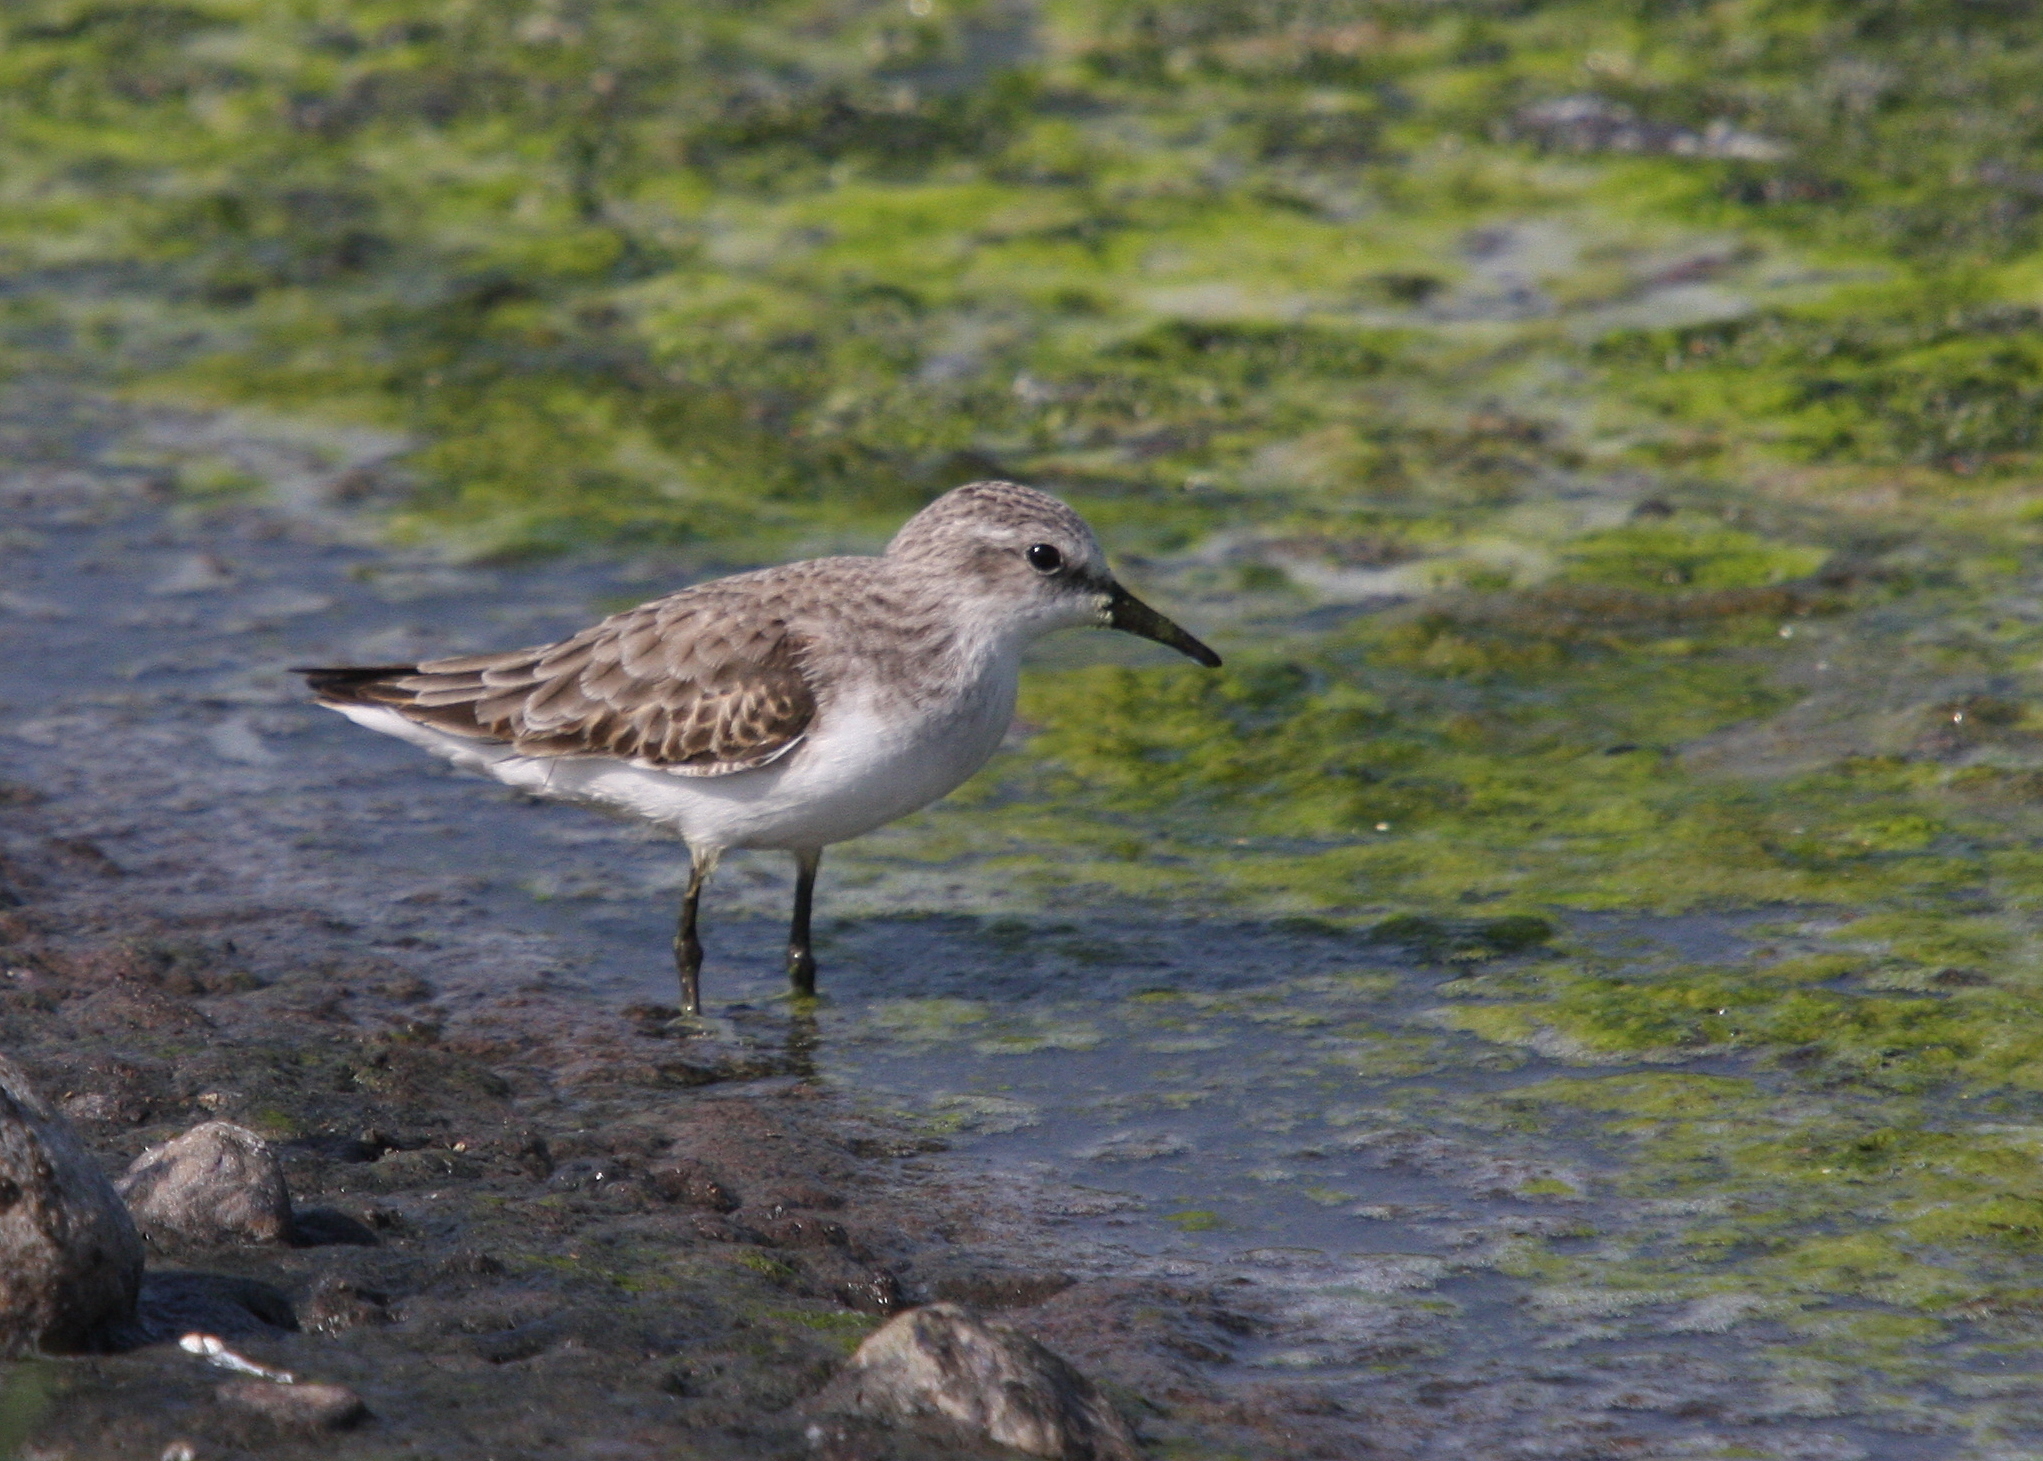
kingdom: Animalia
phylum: Chordata
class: Aves
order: Charadriiformes
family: Scolopacidae
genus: Calidris
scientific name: Calidris minuta
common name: Little stint
